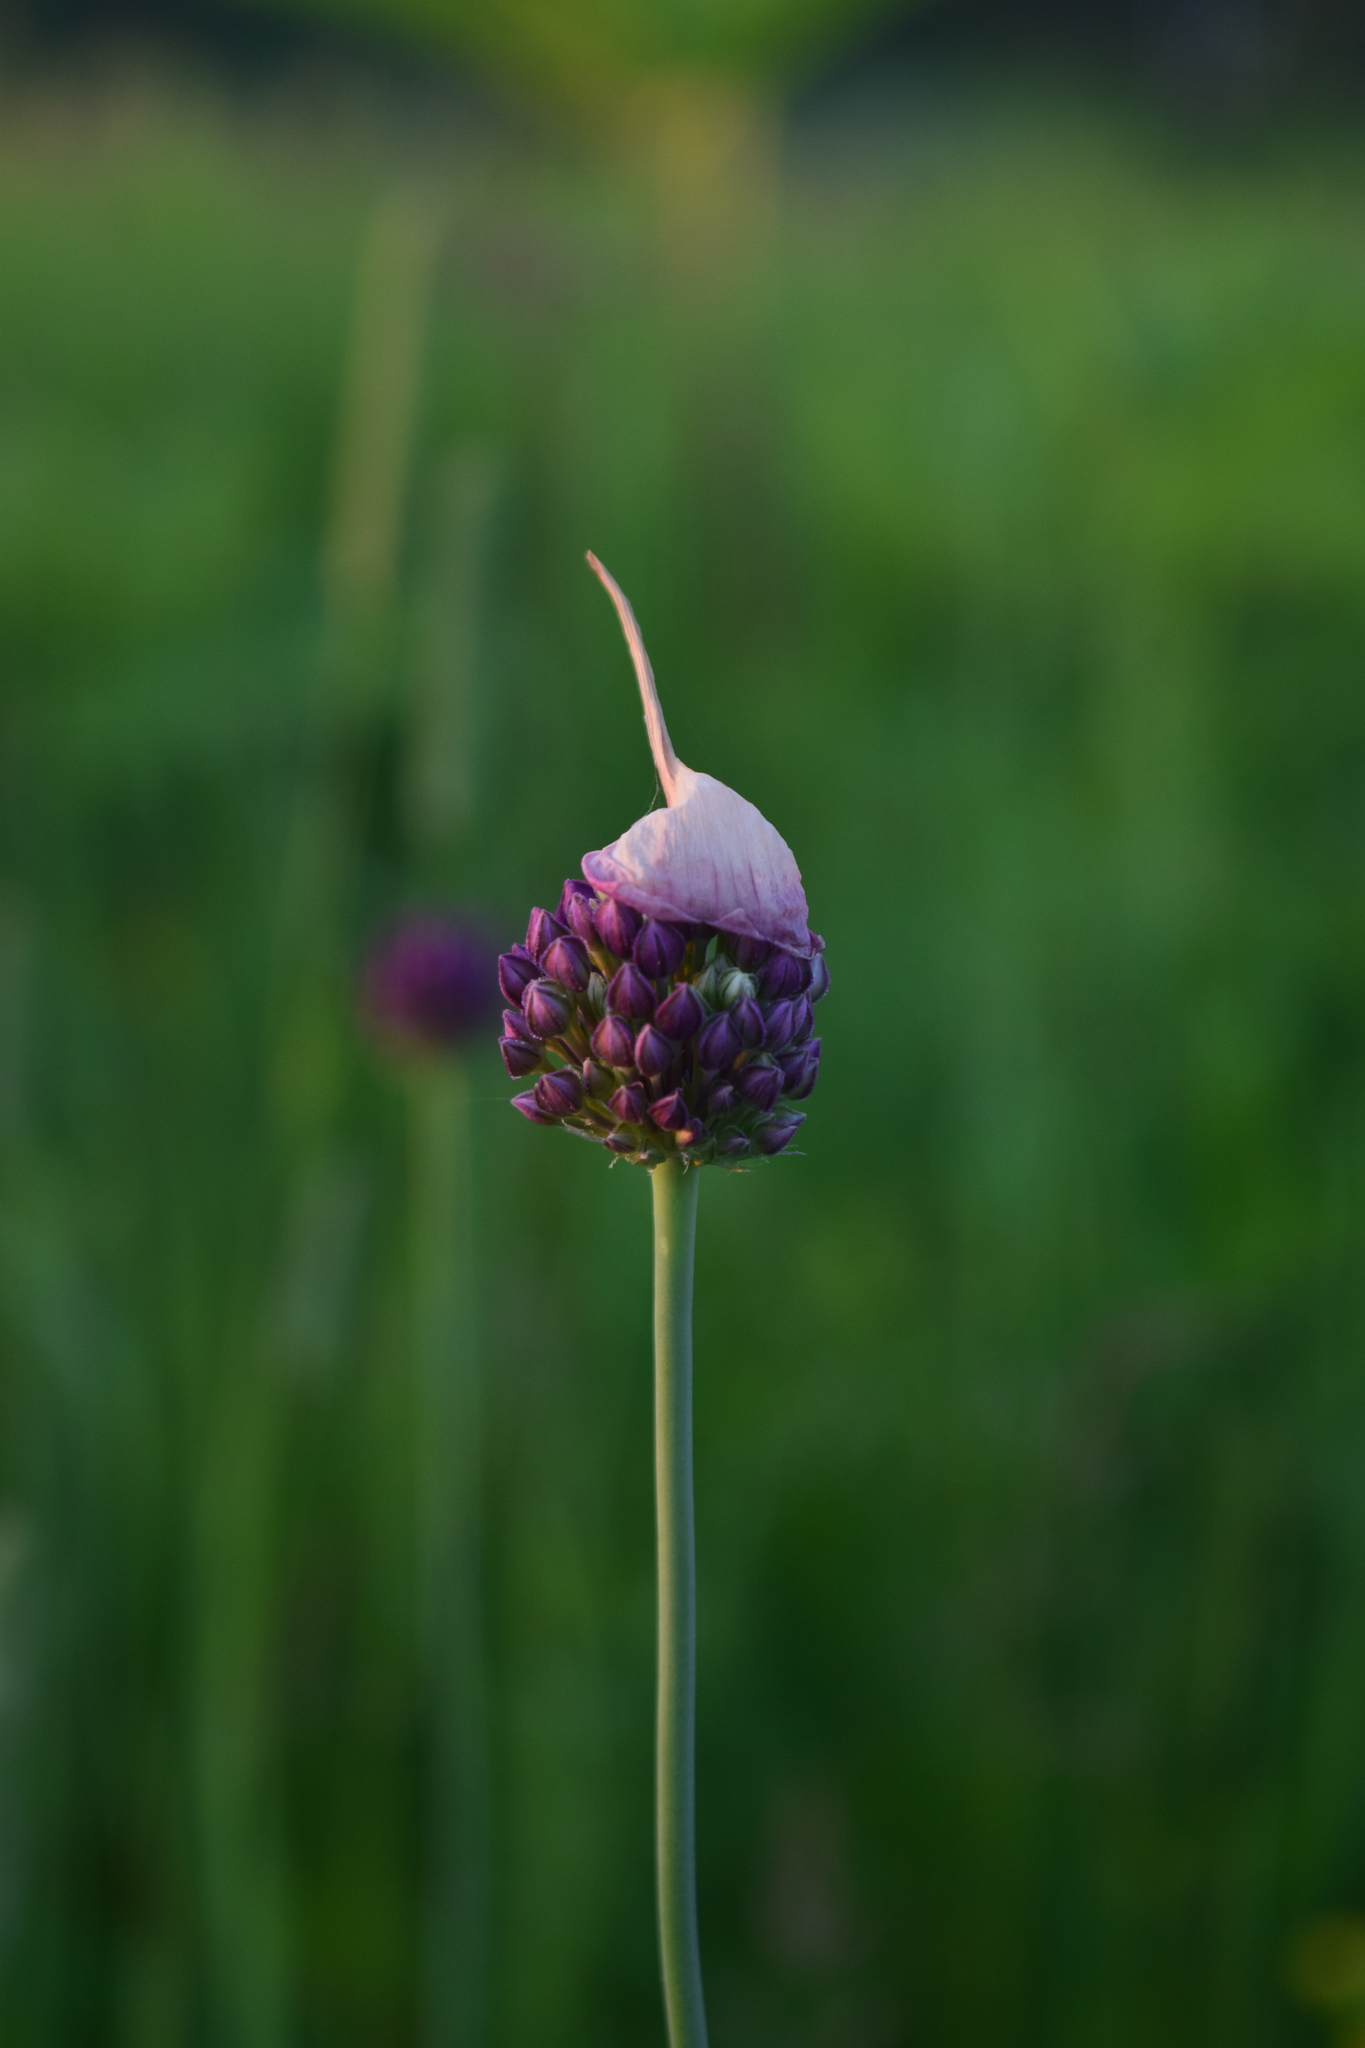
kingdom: Plantae
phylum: Tracheophyta
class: Liliopsida
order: Asparagales
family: Amaryllidaceae
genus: Allium
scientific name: Allium rotundum
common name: Sand leek
